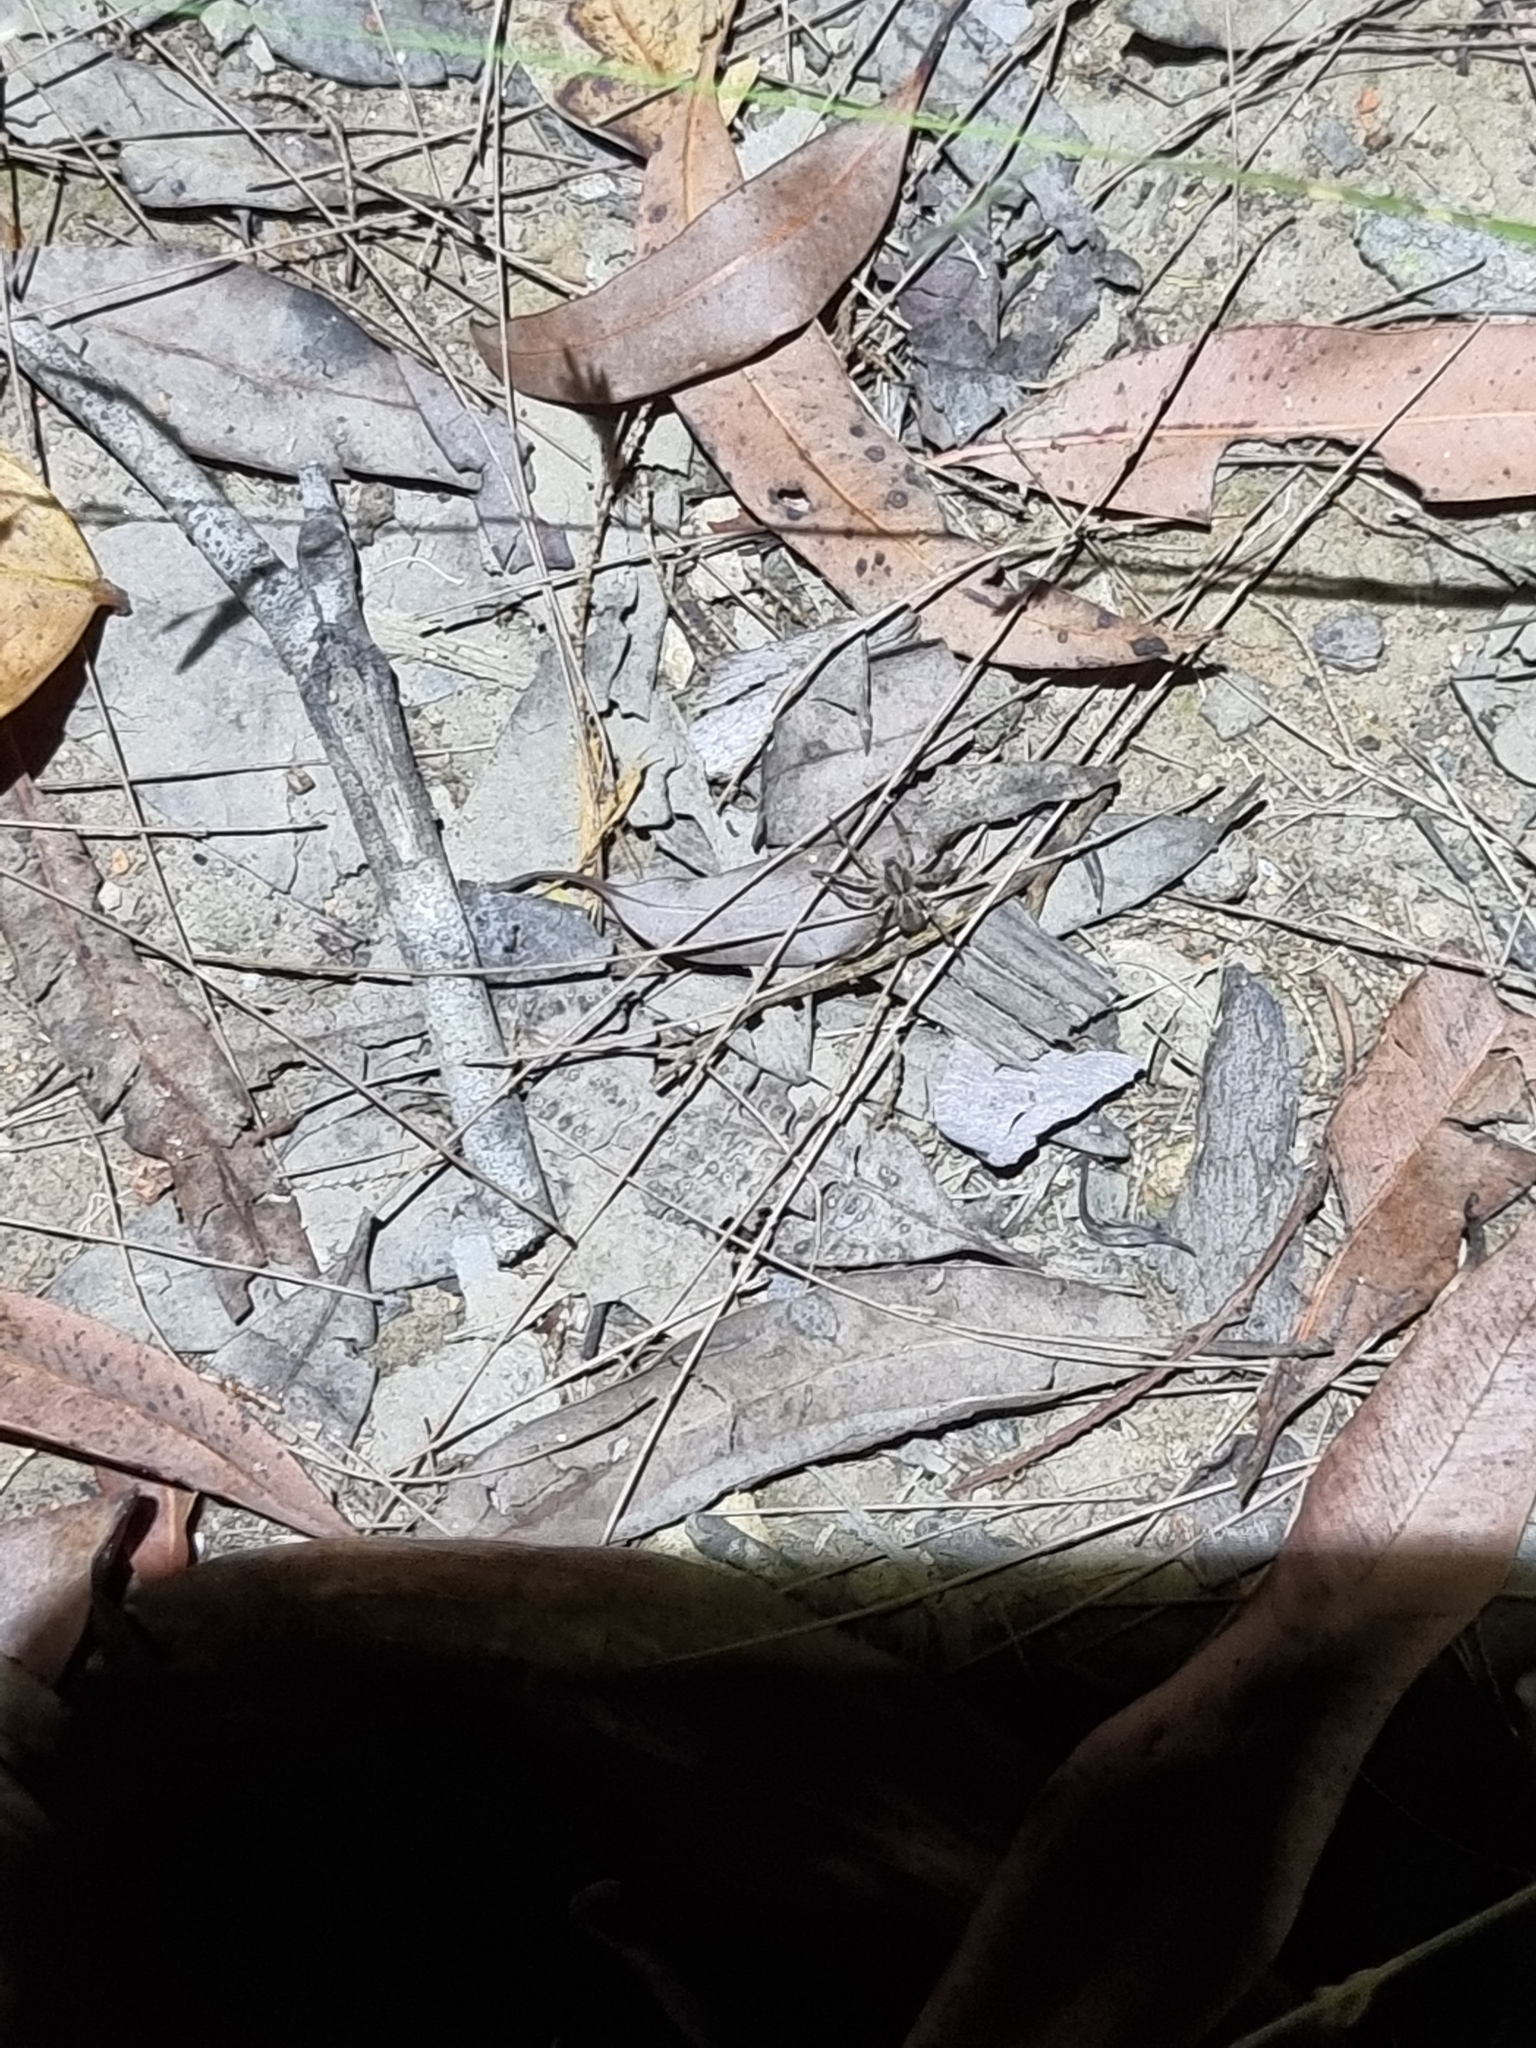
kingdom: Animalia
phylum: Arthropoda
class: Arachnida
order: Araneae
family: Lycosidae
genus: Venator
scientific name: Venator spenceri
